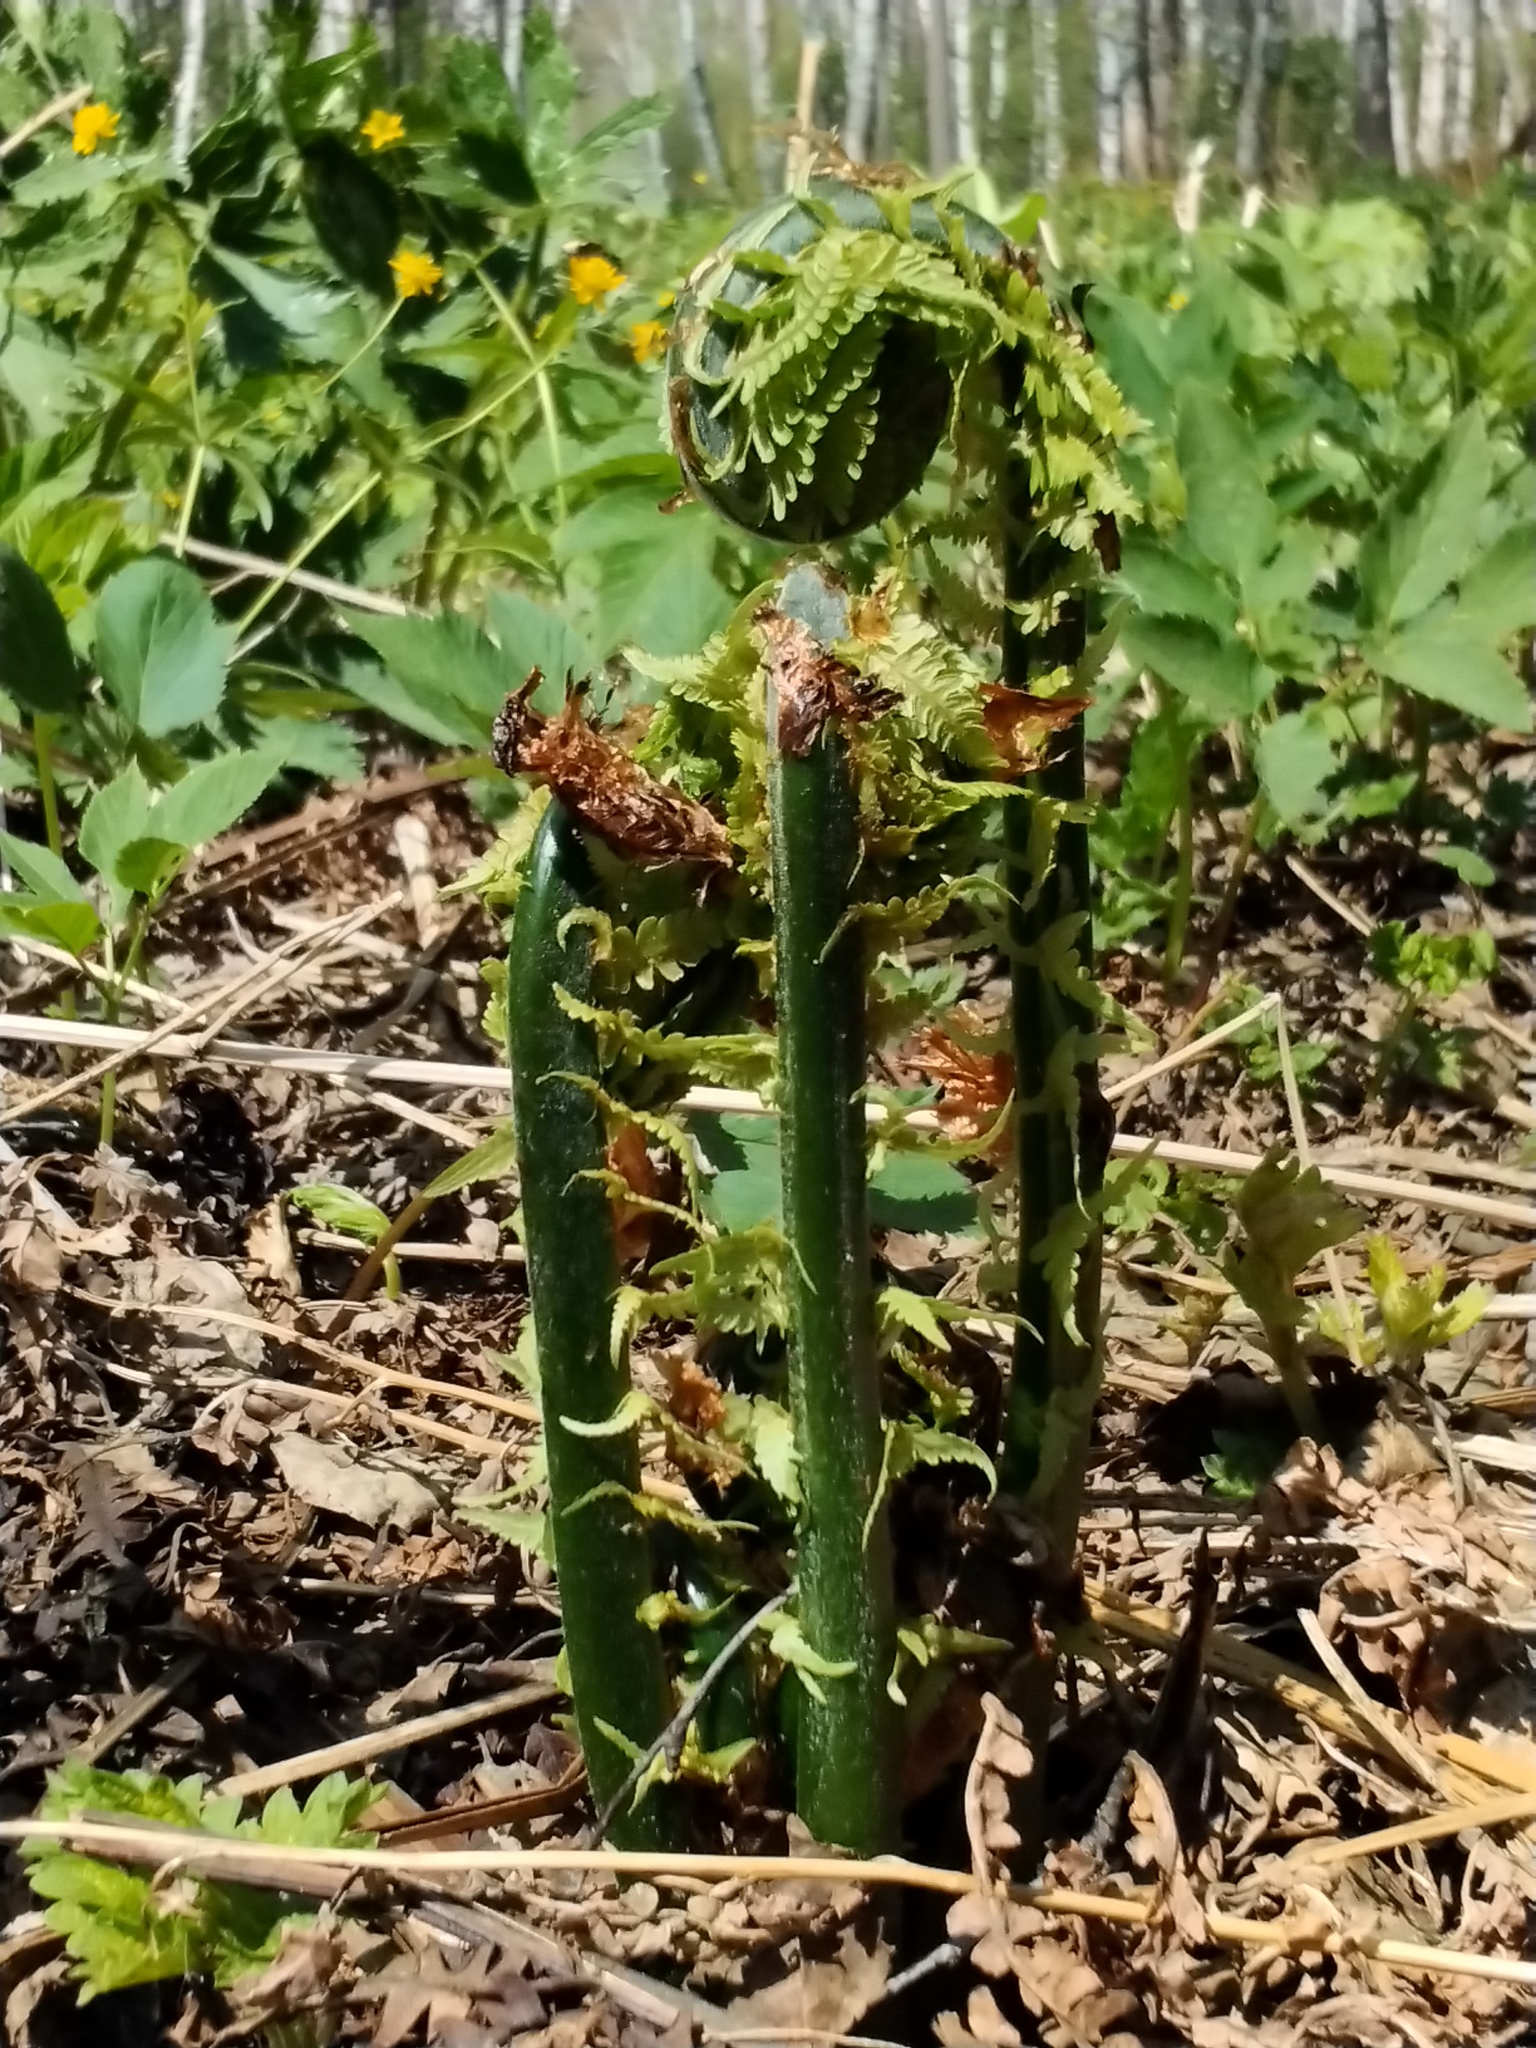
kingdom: Plantae
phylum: Tracheophyta
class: Polypodiopsida
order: Polypodiales
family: Onocleaceae
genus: Matteuccia
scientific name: Matteuccia struthiopteris
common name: Ostrich fern
